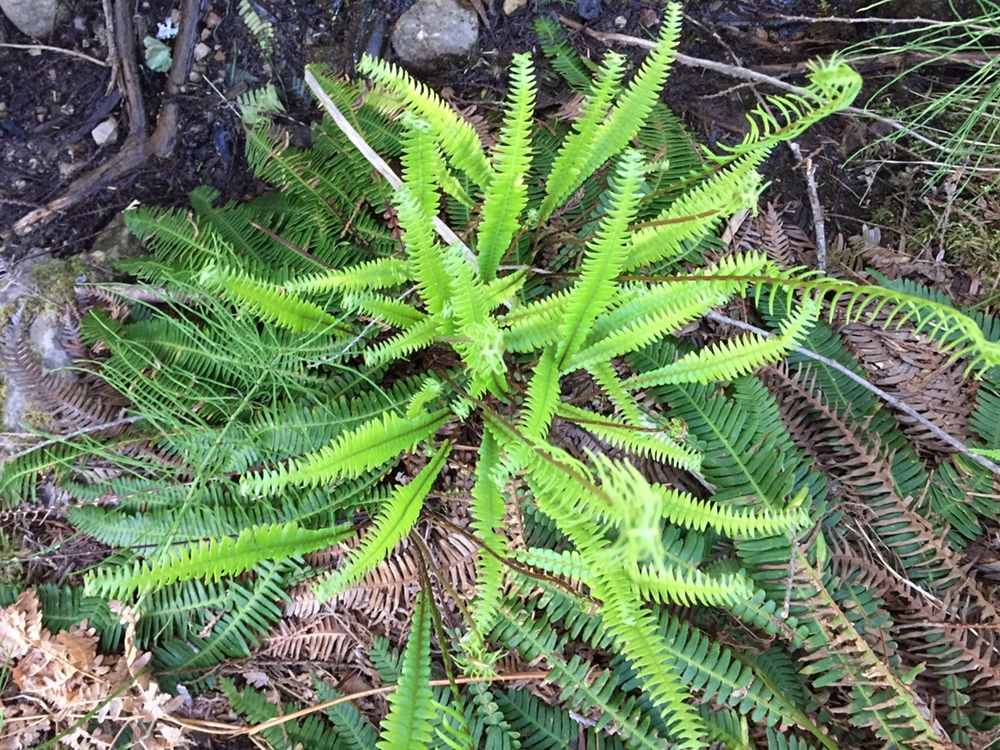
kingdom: Plantae
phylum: Tracheophyta
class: Polypodiopsida
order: Polypodiales
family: Blechnaceae
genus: Struthiopteris
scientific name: Struthiopteris spicant
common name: Deer fern
